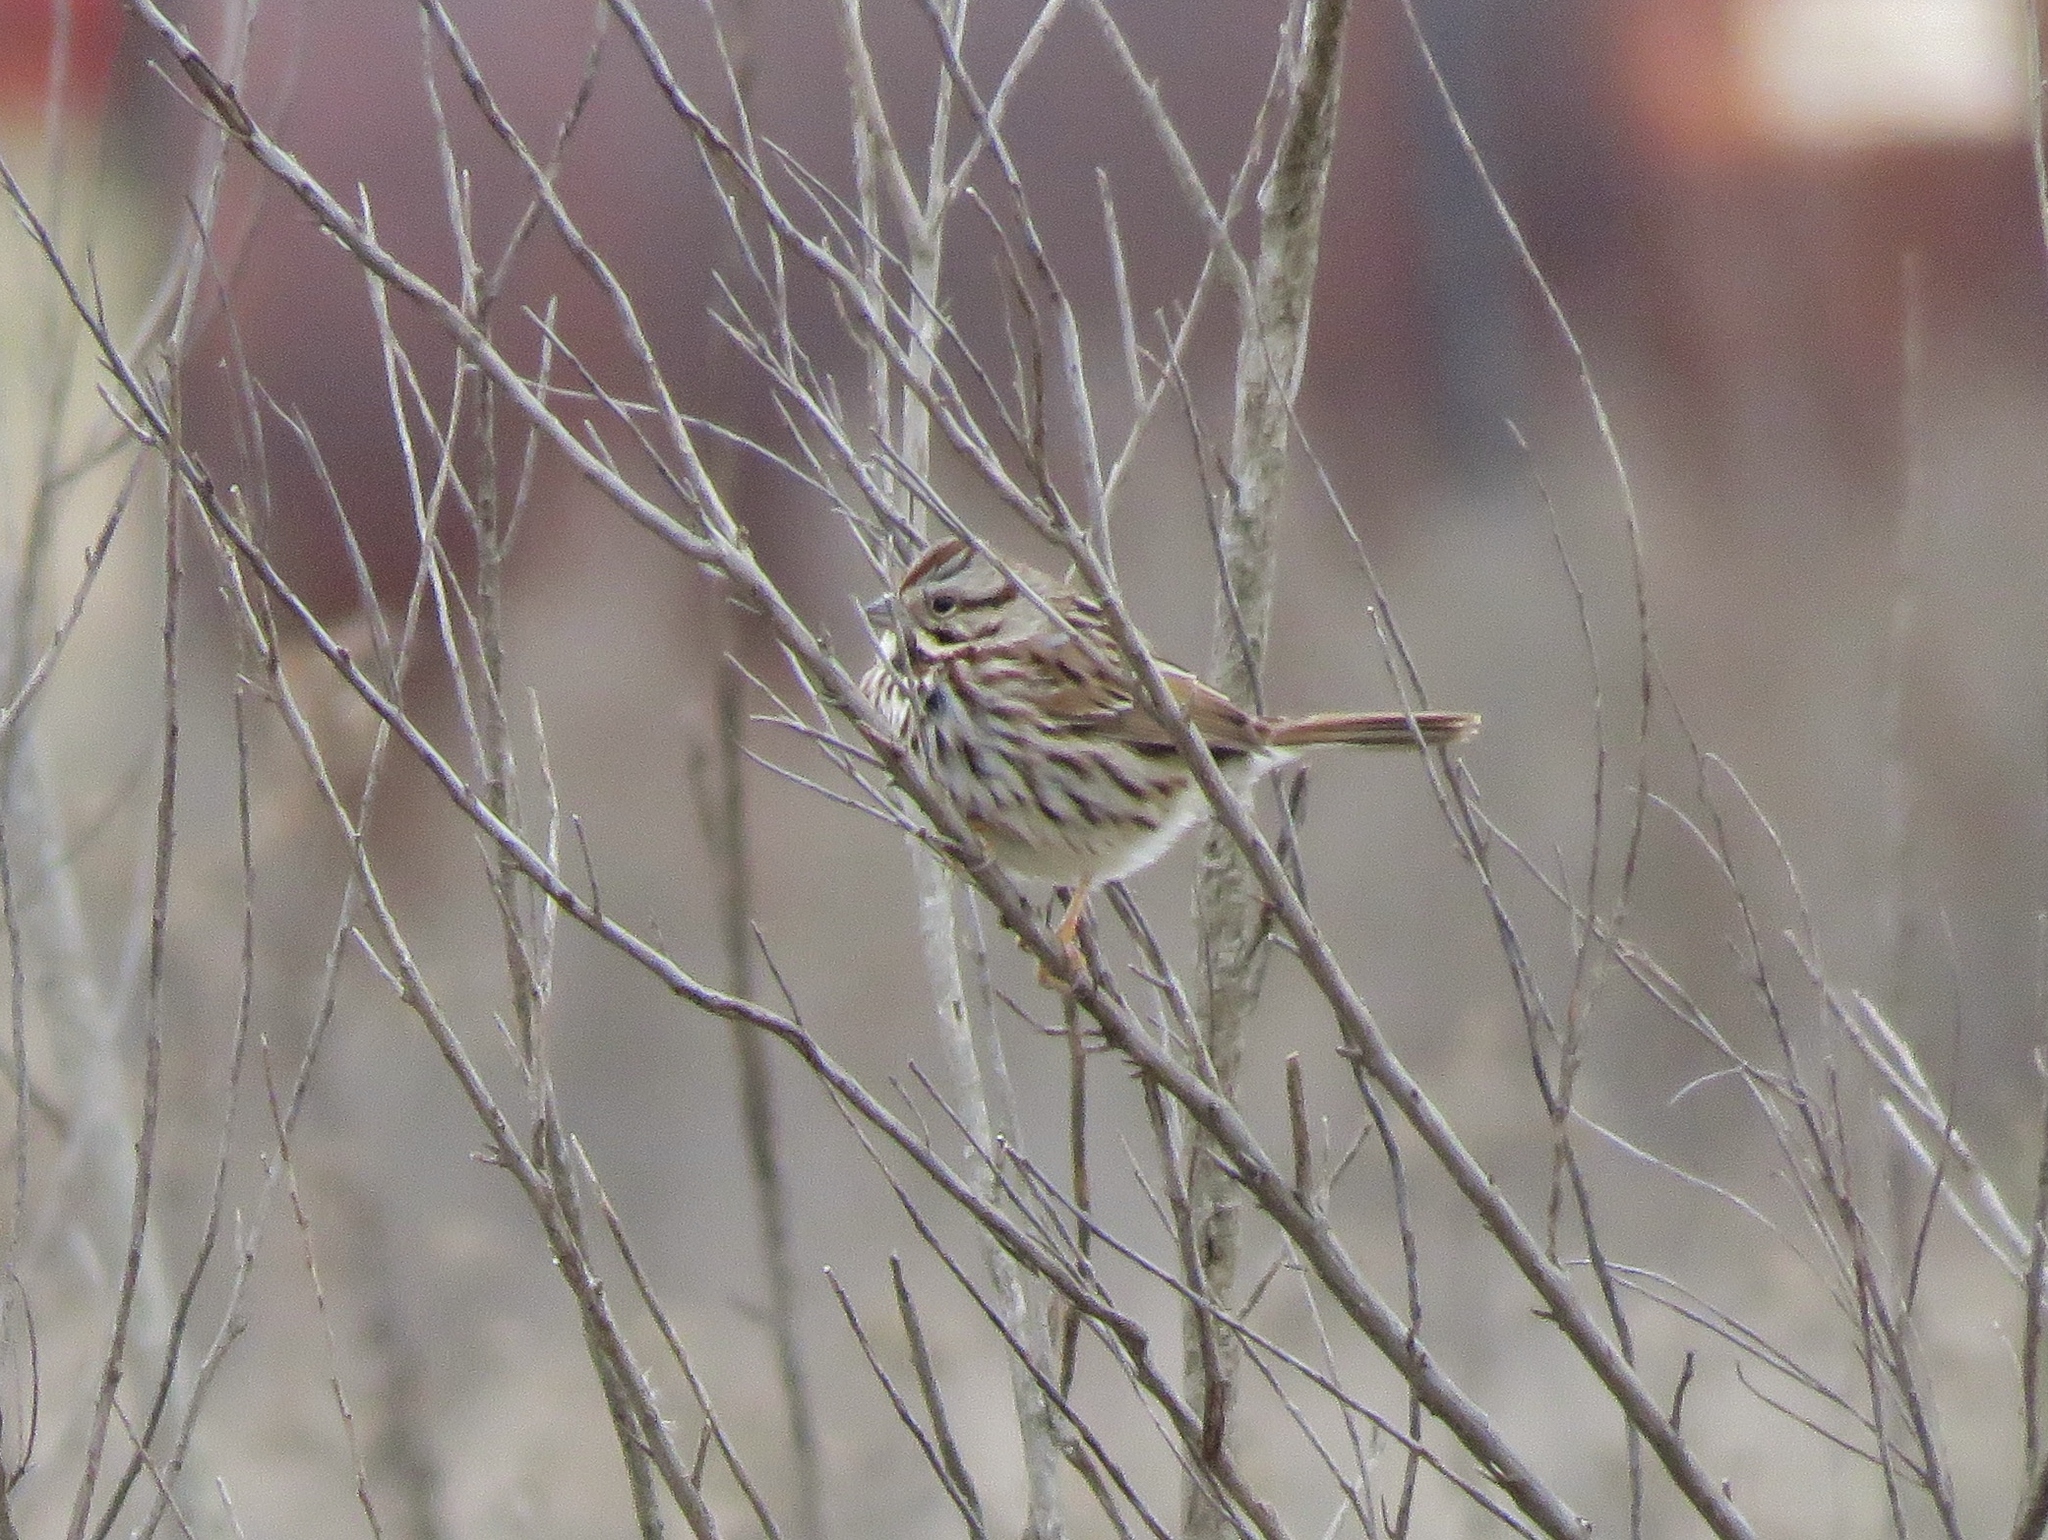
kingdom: Animalia
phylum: Chordata
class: Aves
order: Passeriformes
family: Passerellidae
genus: Melospiza
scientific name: Melospiza melodia
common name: Song sparrow
